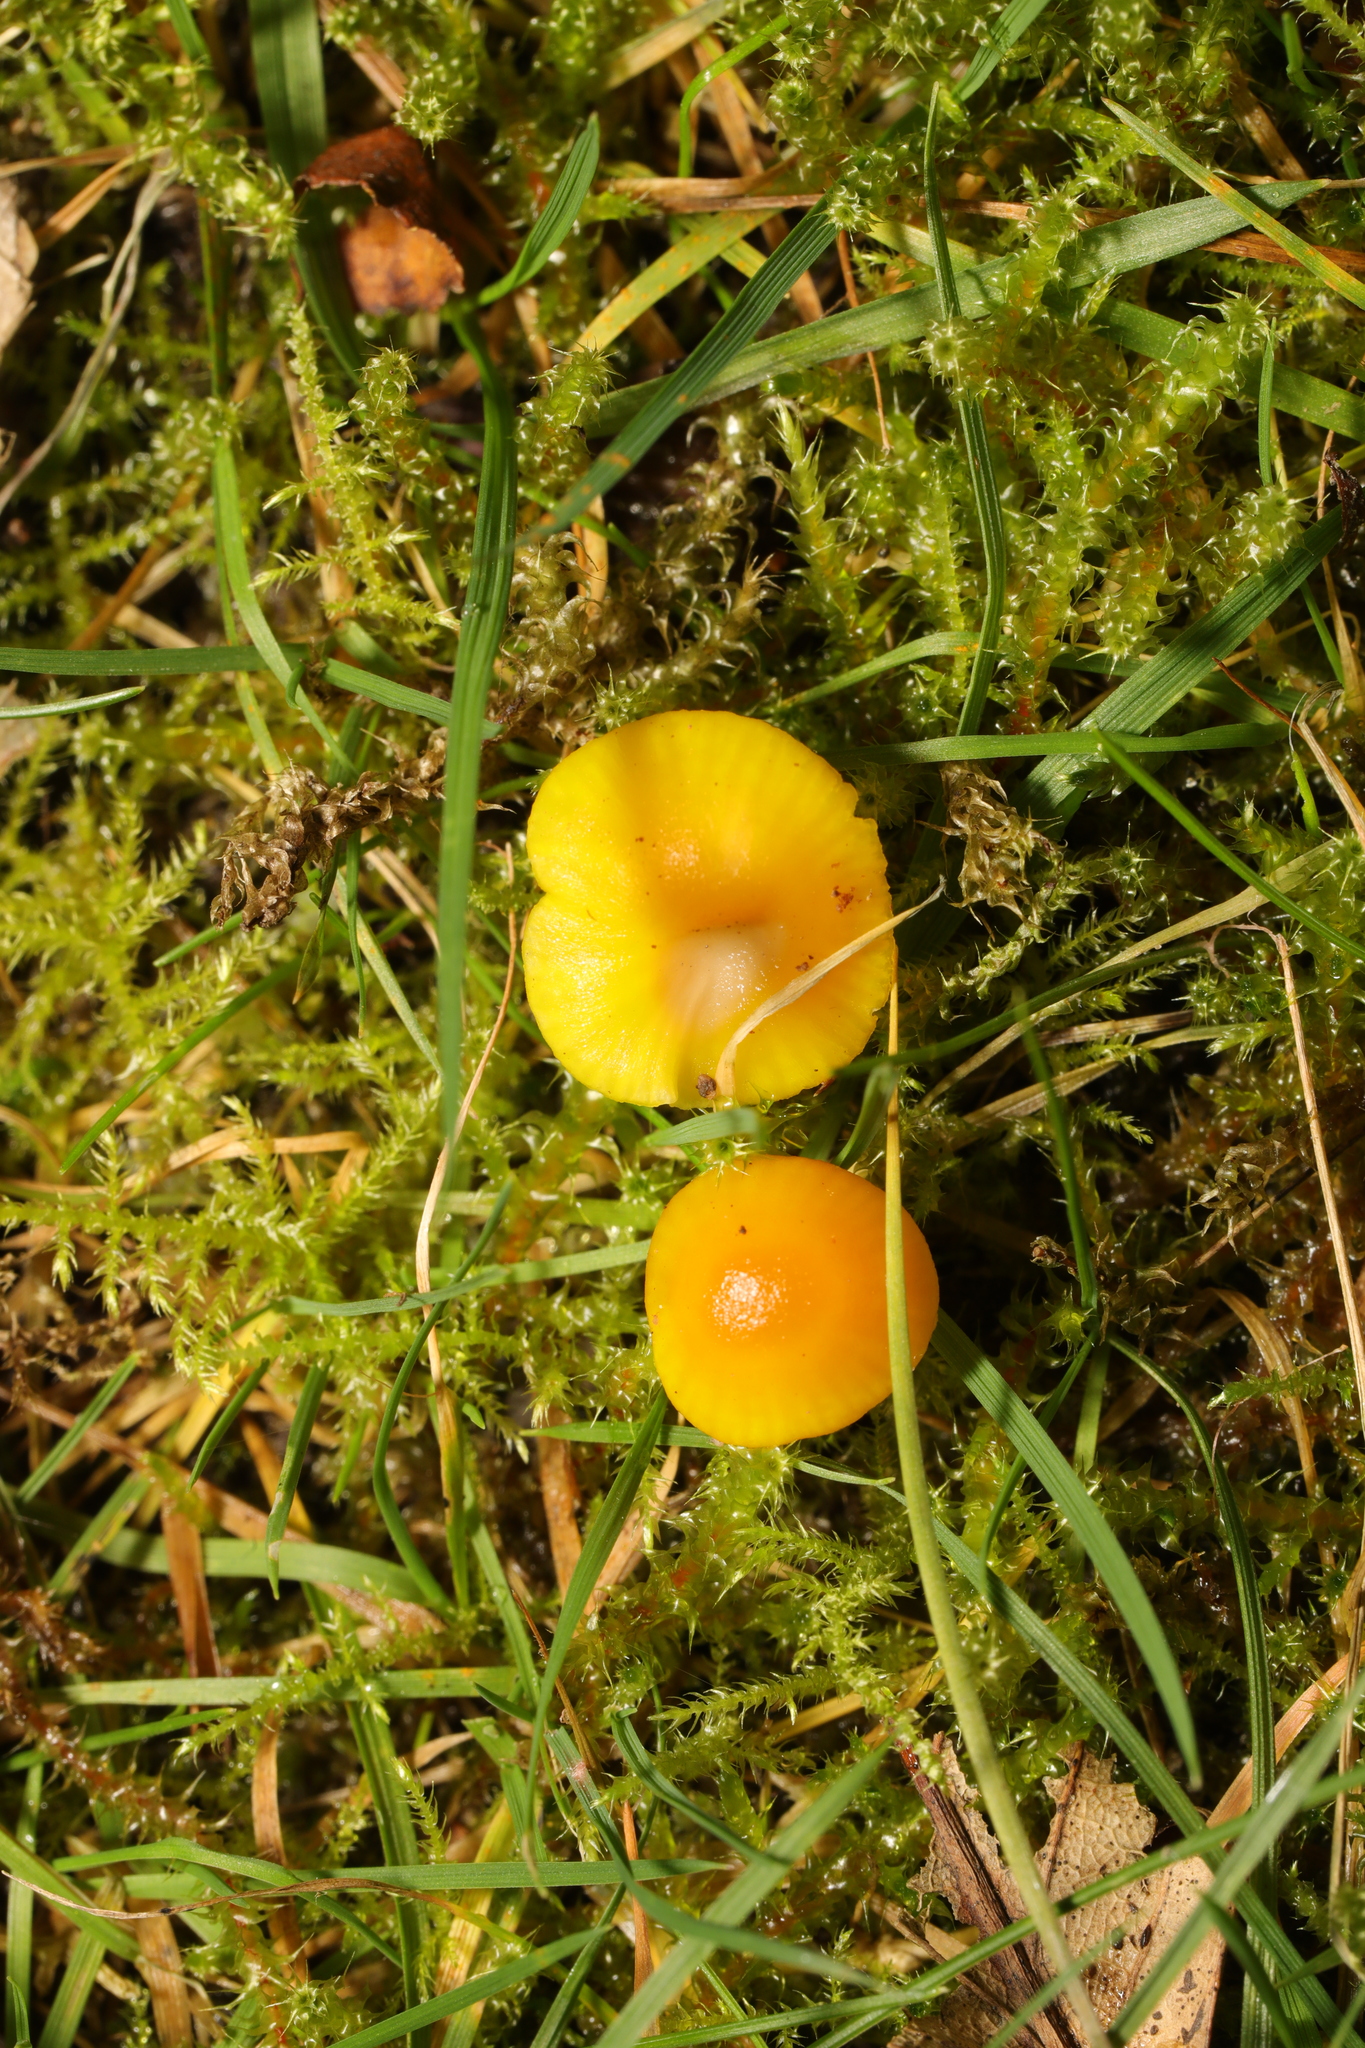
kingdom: Fungi
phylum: Basidiomycota
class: Agaricomycetes
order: Agaricales
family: Hygrophoraceae
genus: Hygrocybe
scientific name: Hygrocybe ceracea
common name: Butter waxcap
